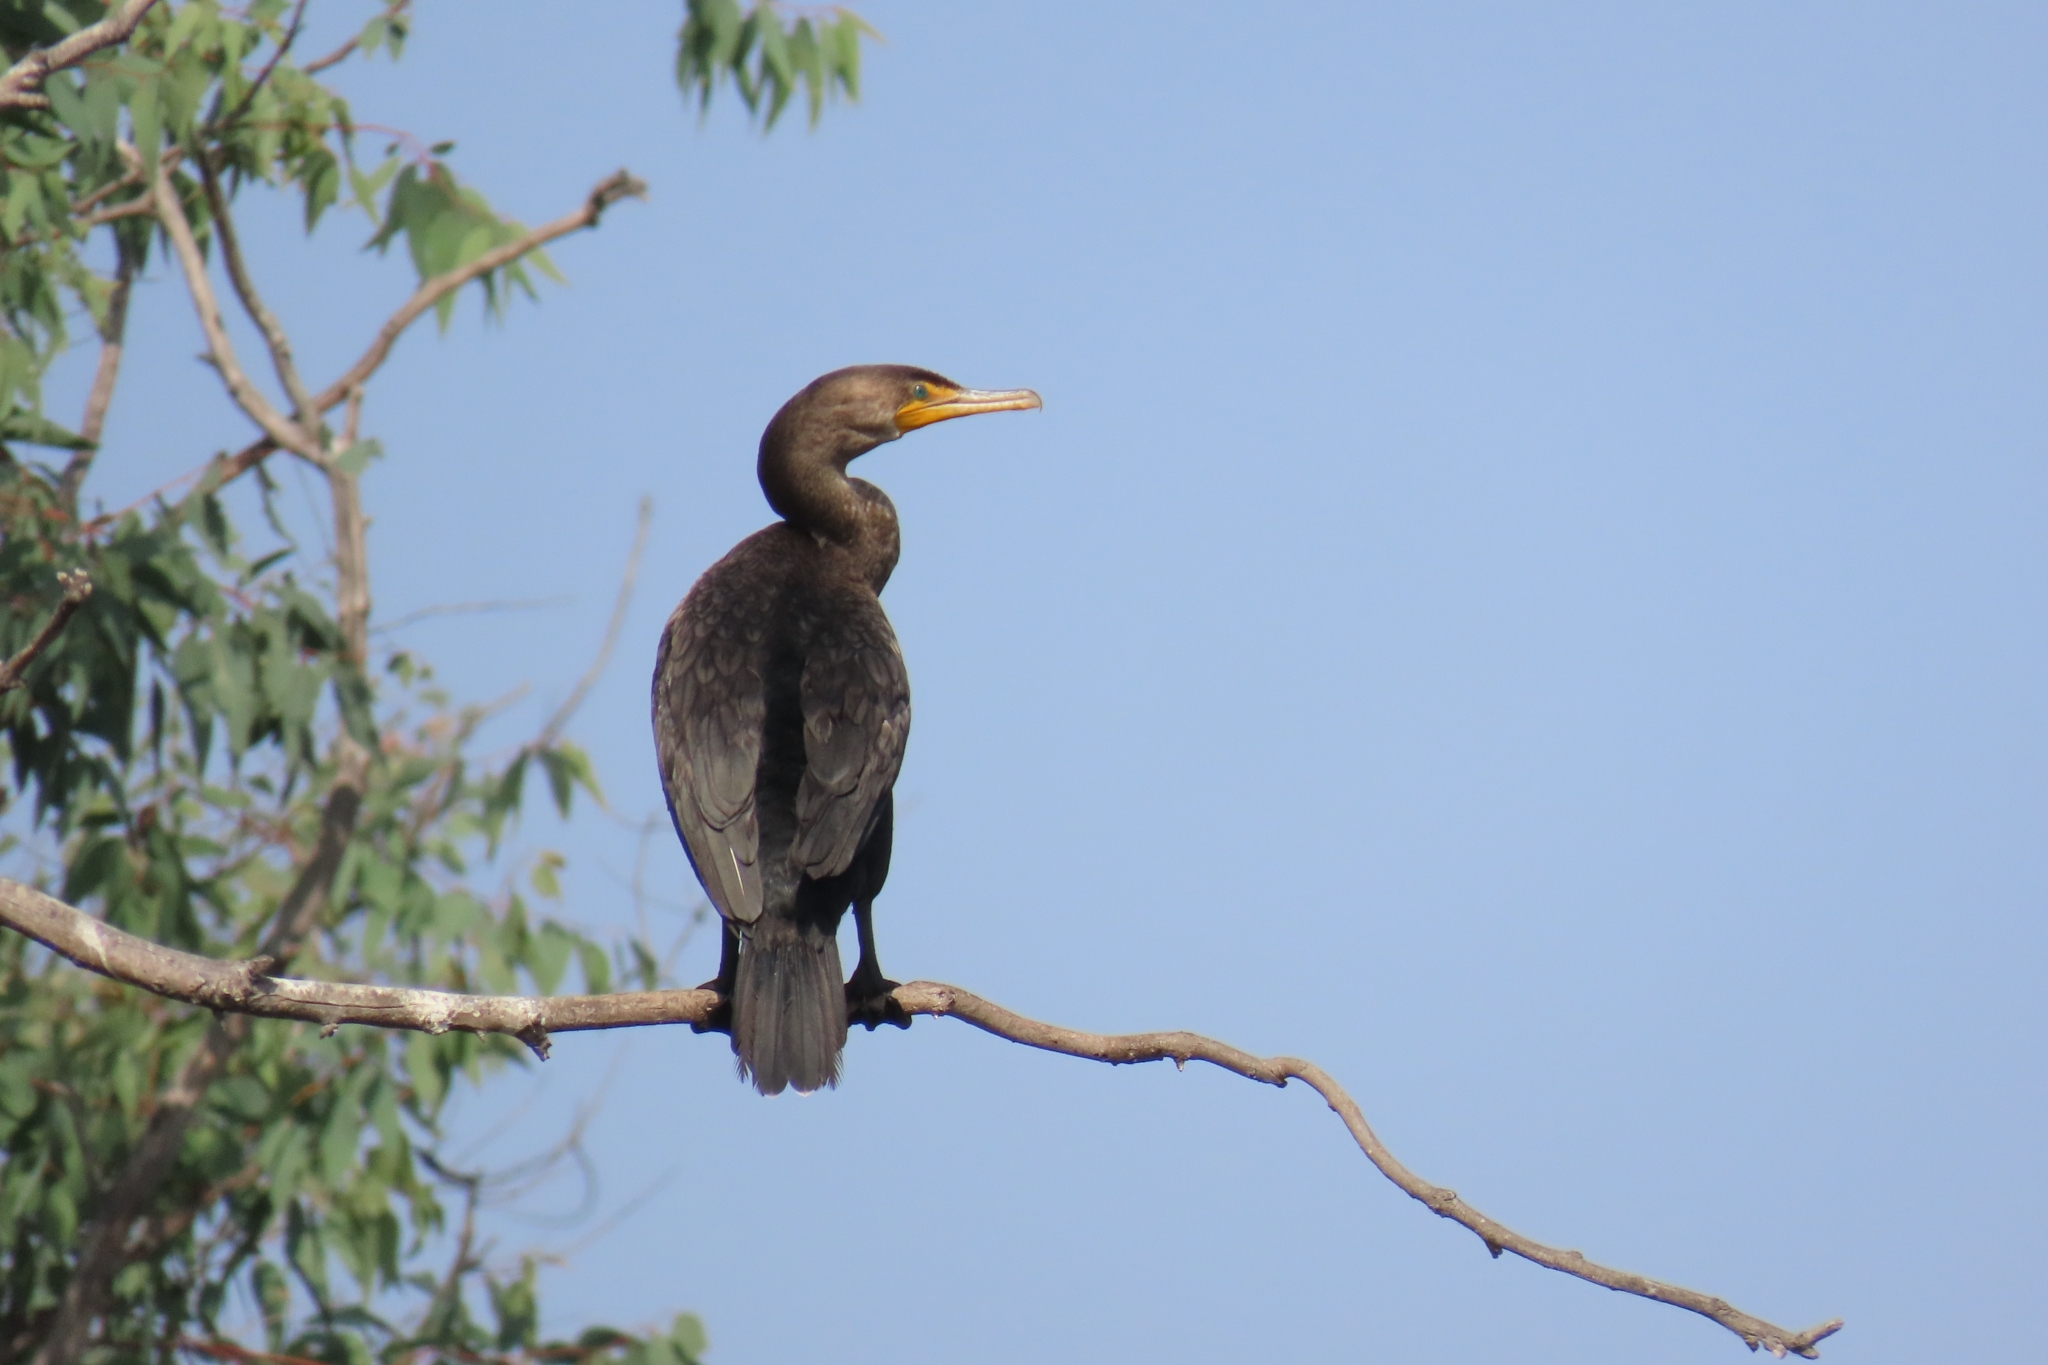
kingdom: Animalia
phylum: Chordata
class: Aves
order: Suliformes
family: Phalacrocoracidae
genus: Phalacrocorax
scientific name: Phalacrocorax auritus
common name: Double-crested cormorant
